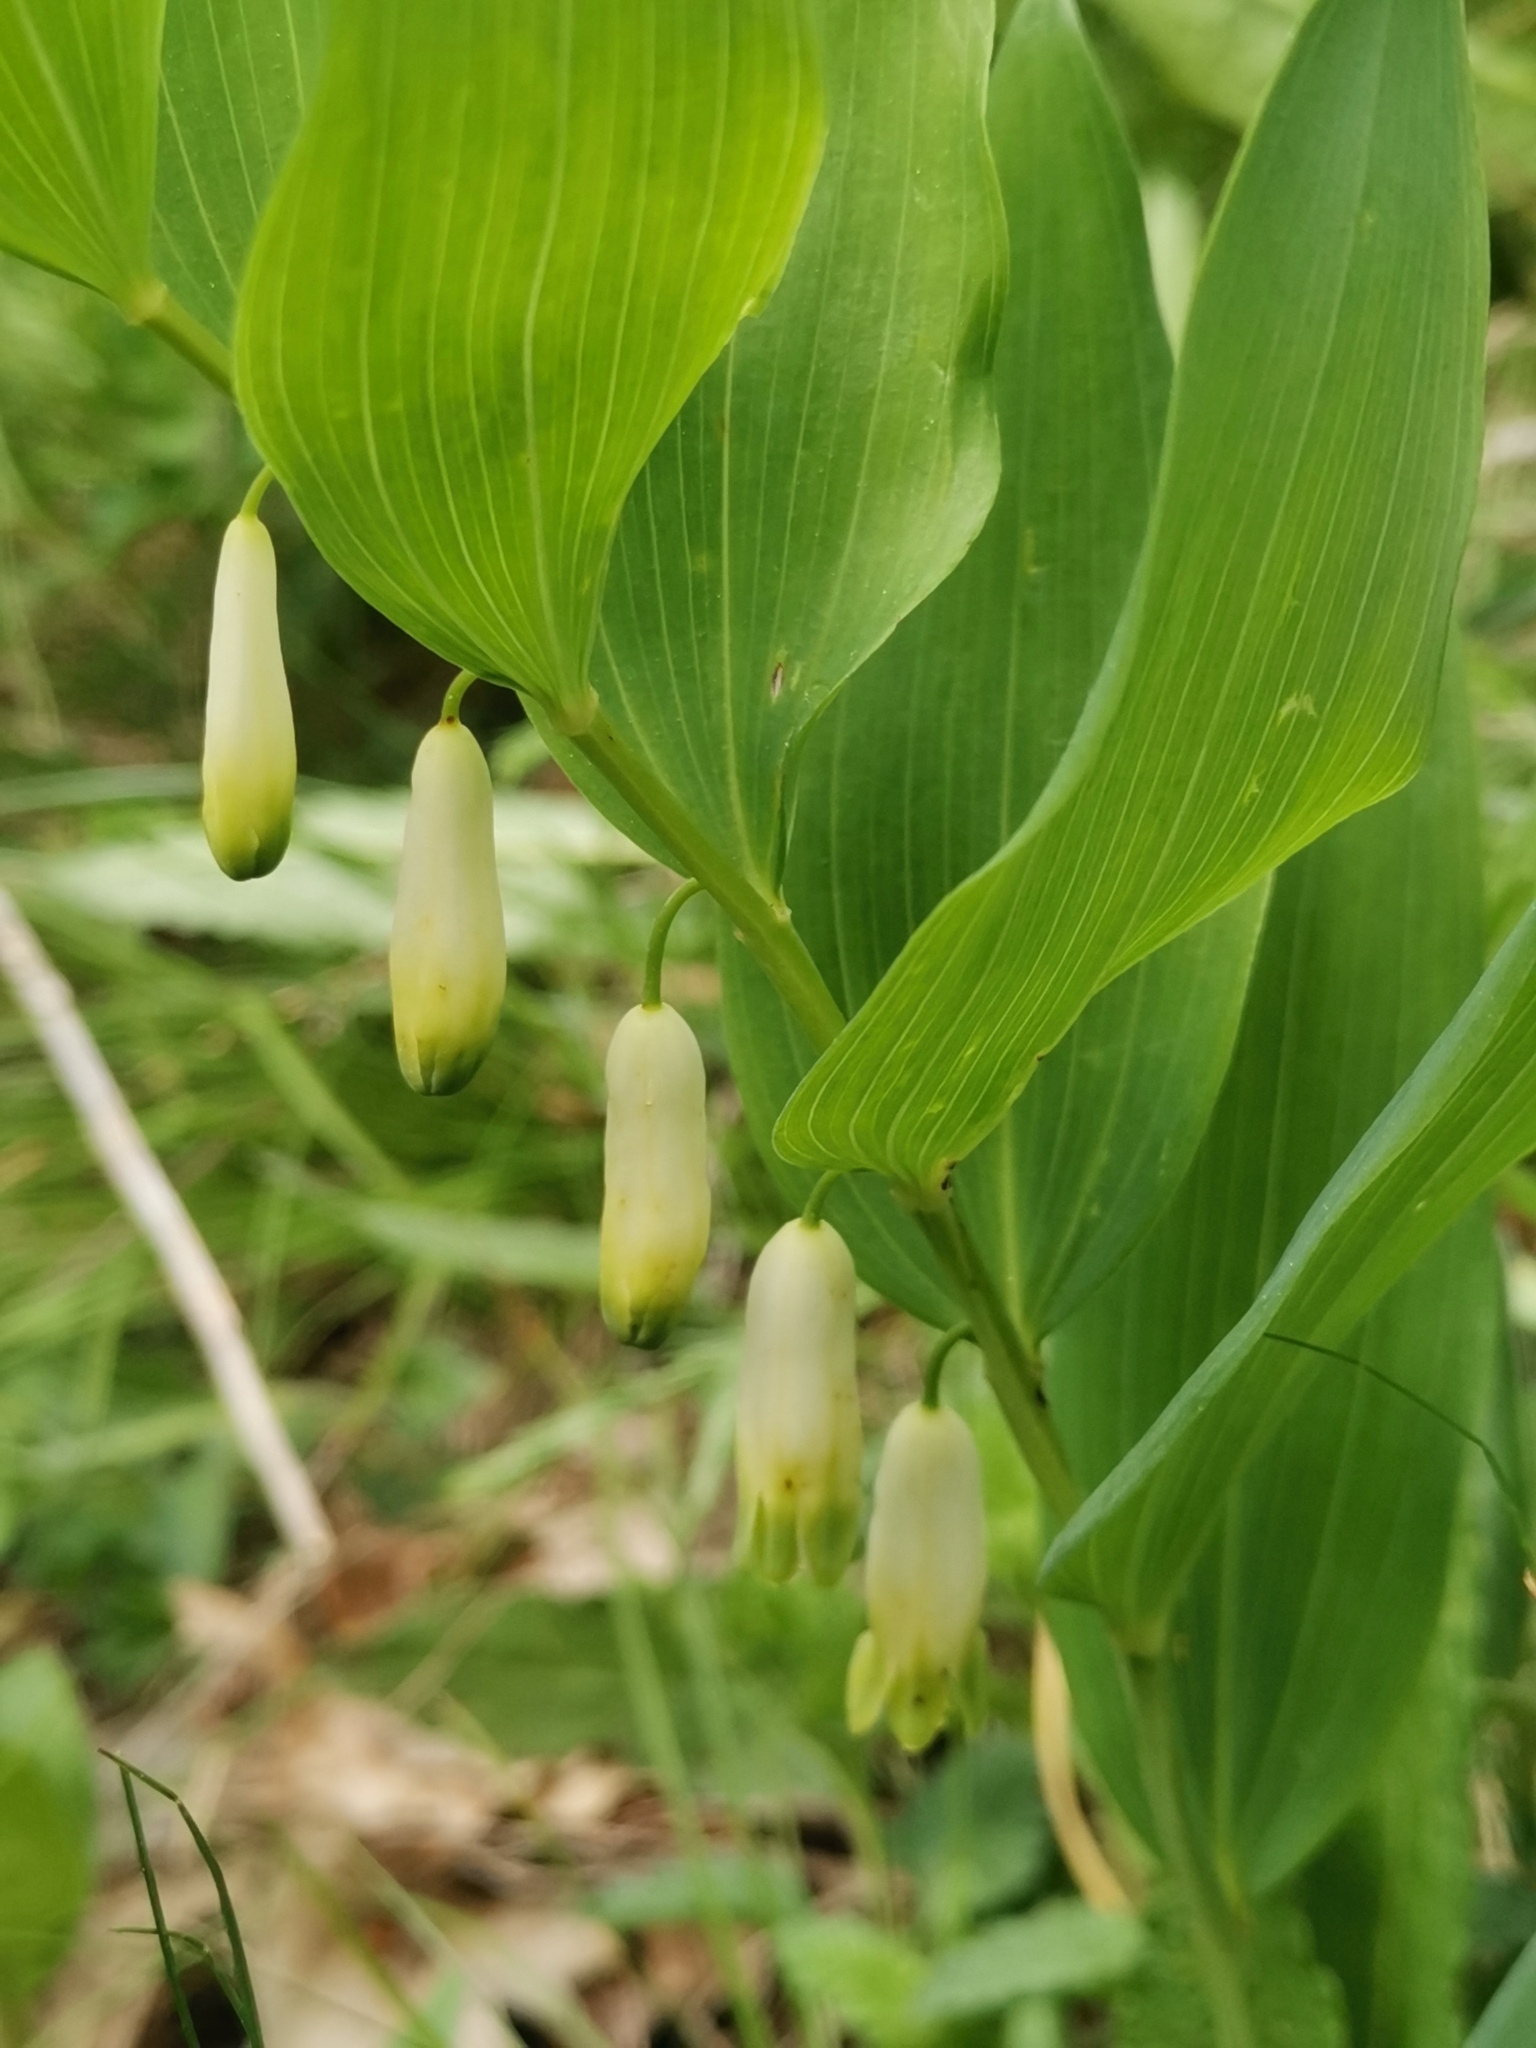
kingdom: Plantae
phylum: Tracheophyta
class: Liliopsida
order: Asparagales
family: Asparagaceae
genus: Polygonatum
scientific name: Polygonatum odoratum
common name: Angular solomon's-seal
